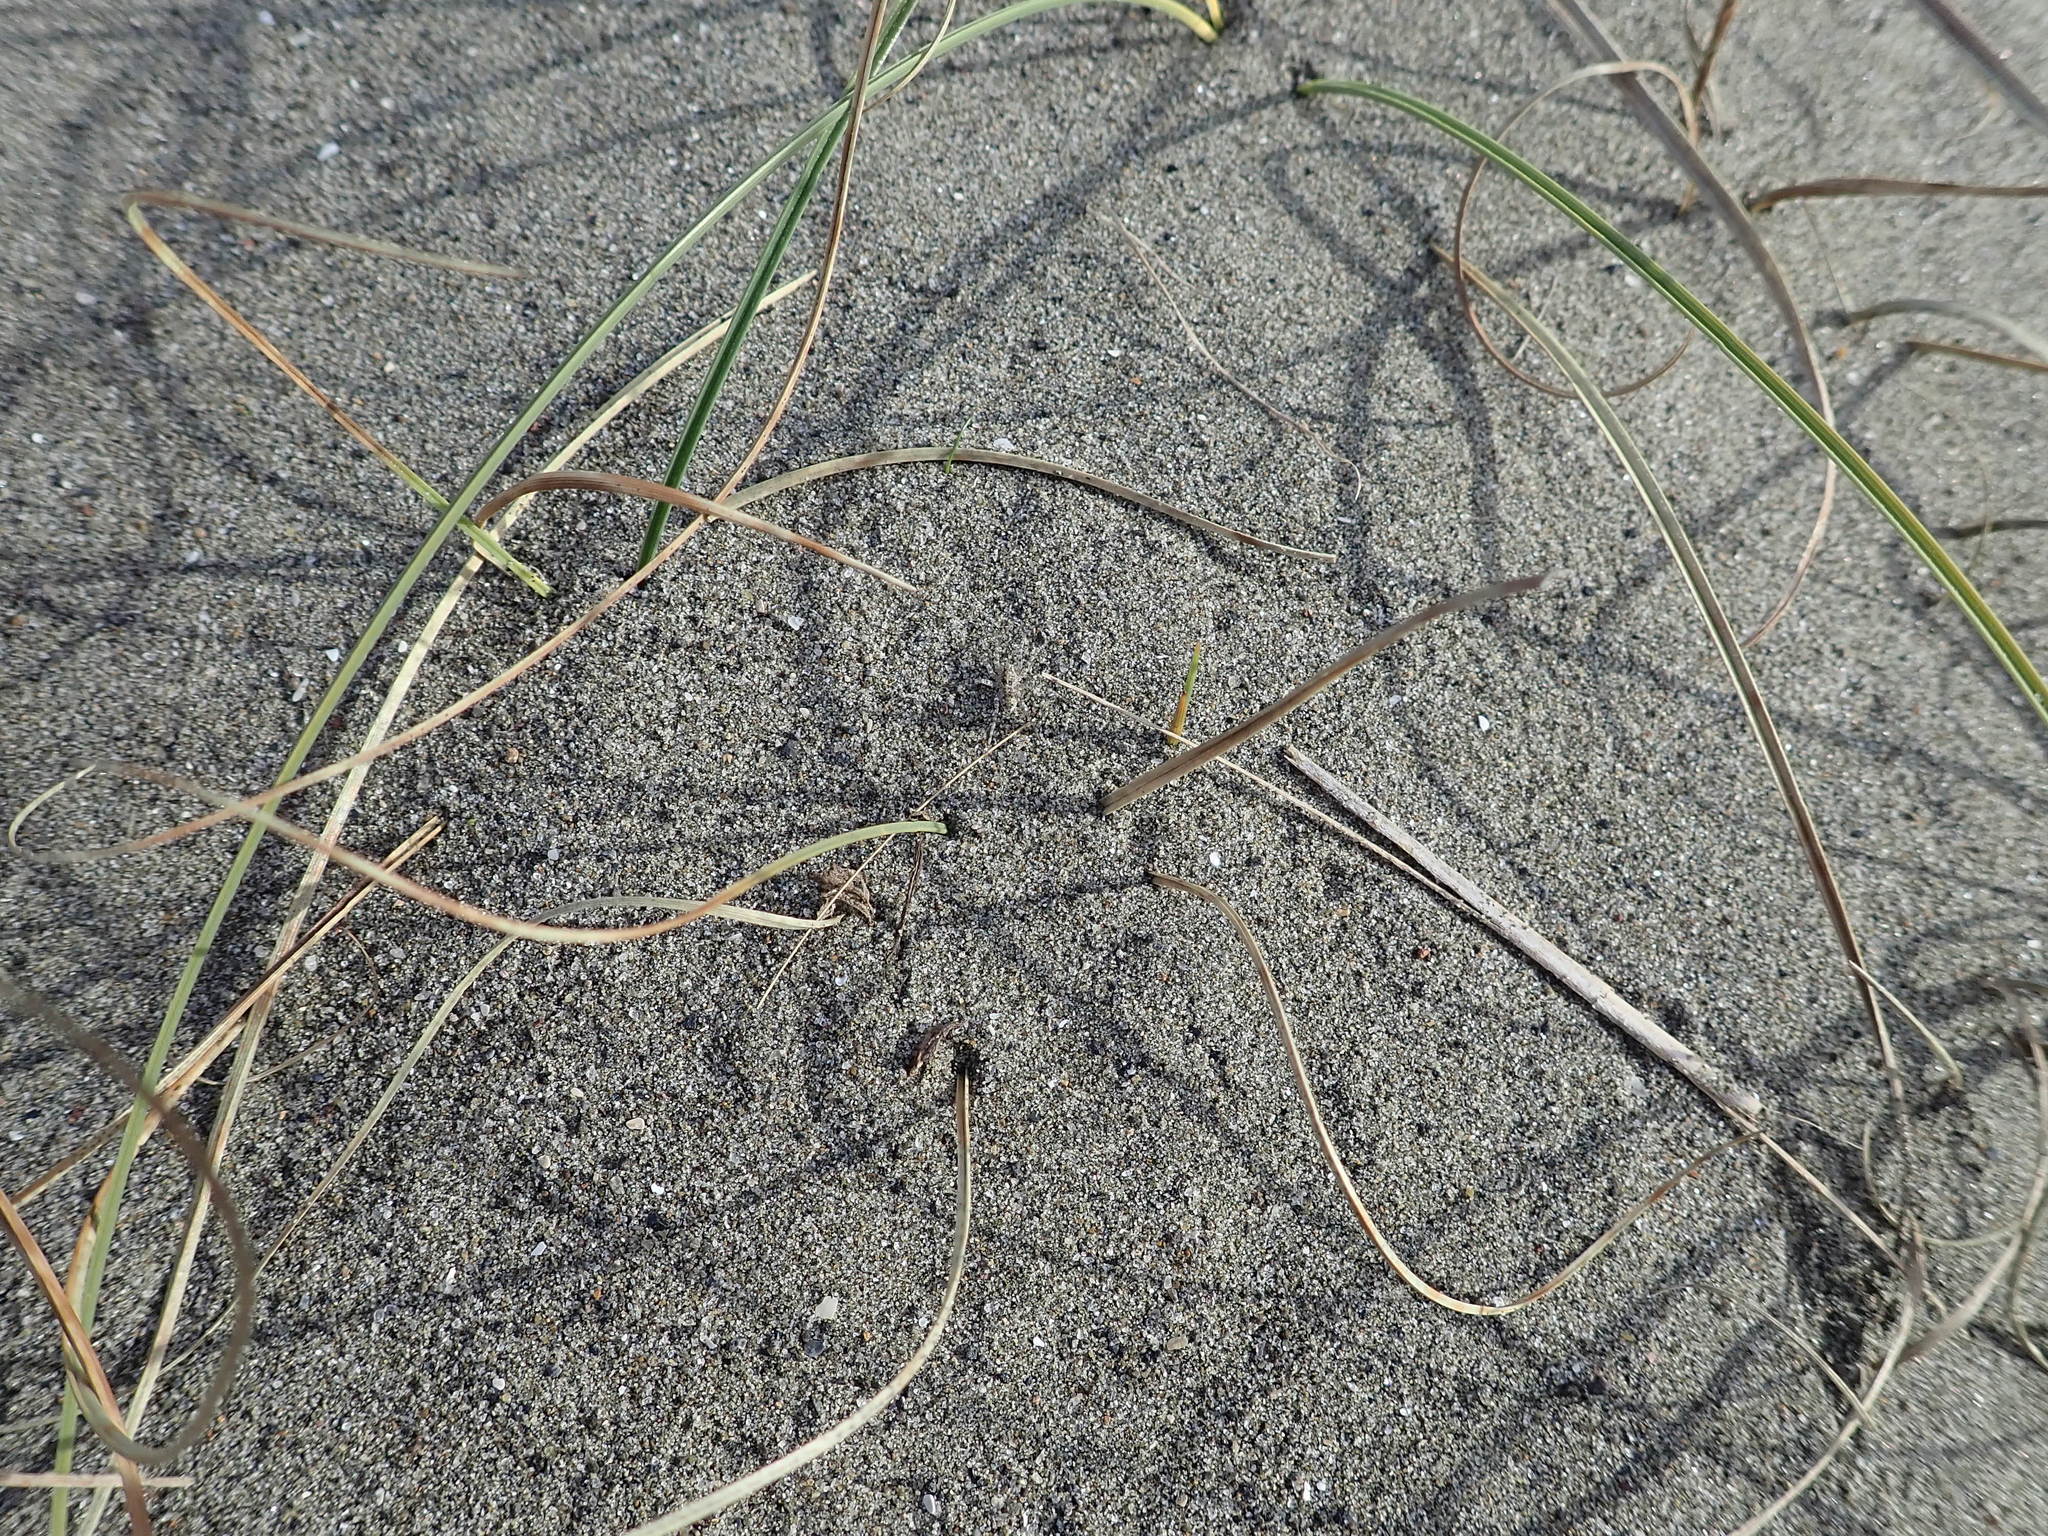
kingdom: Animalia
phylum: Arthropoda
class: Arachnida
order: Araneae
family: Lycosidae
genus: Anoteropsis
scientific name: Anoteropsis litoralis
